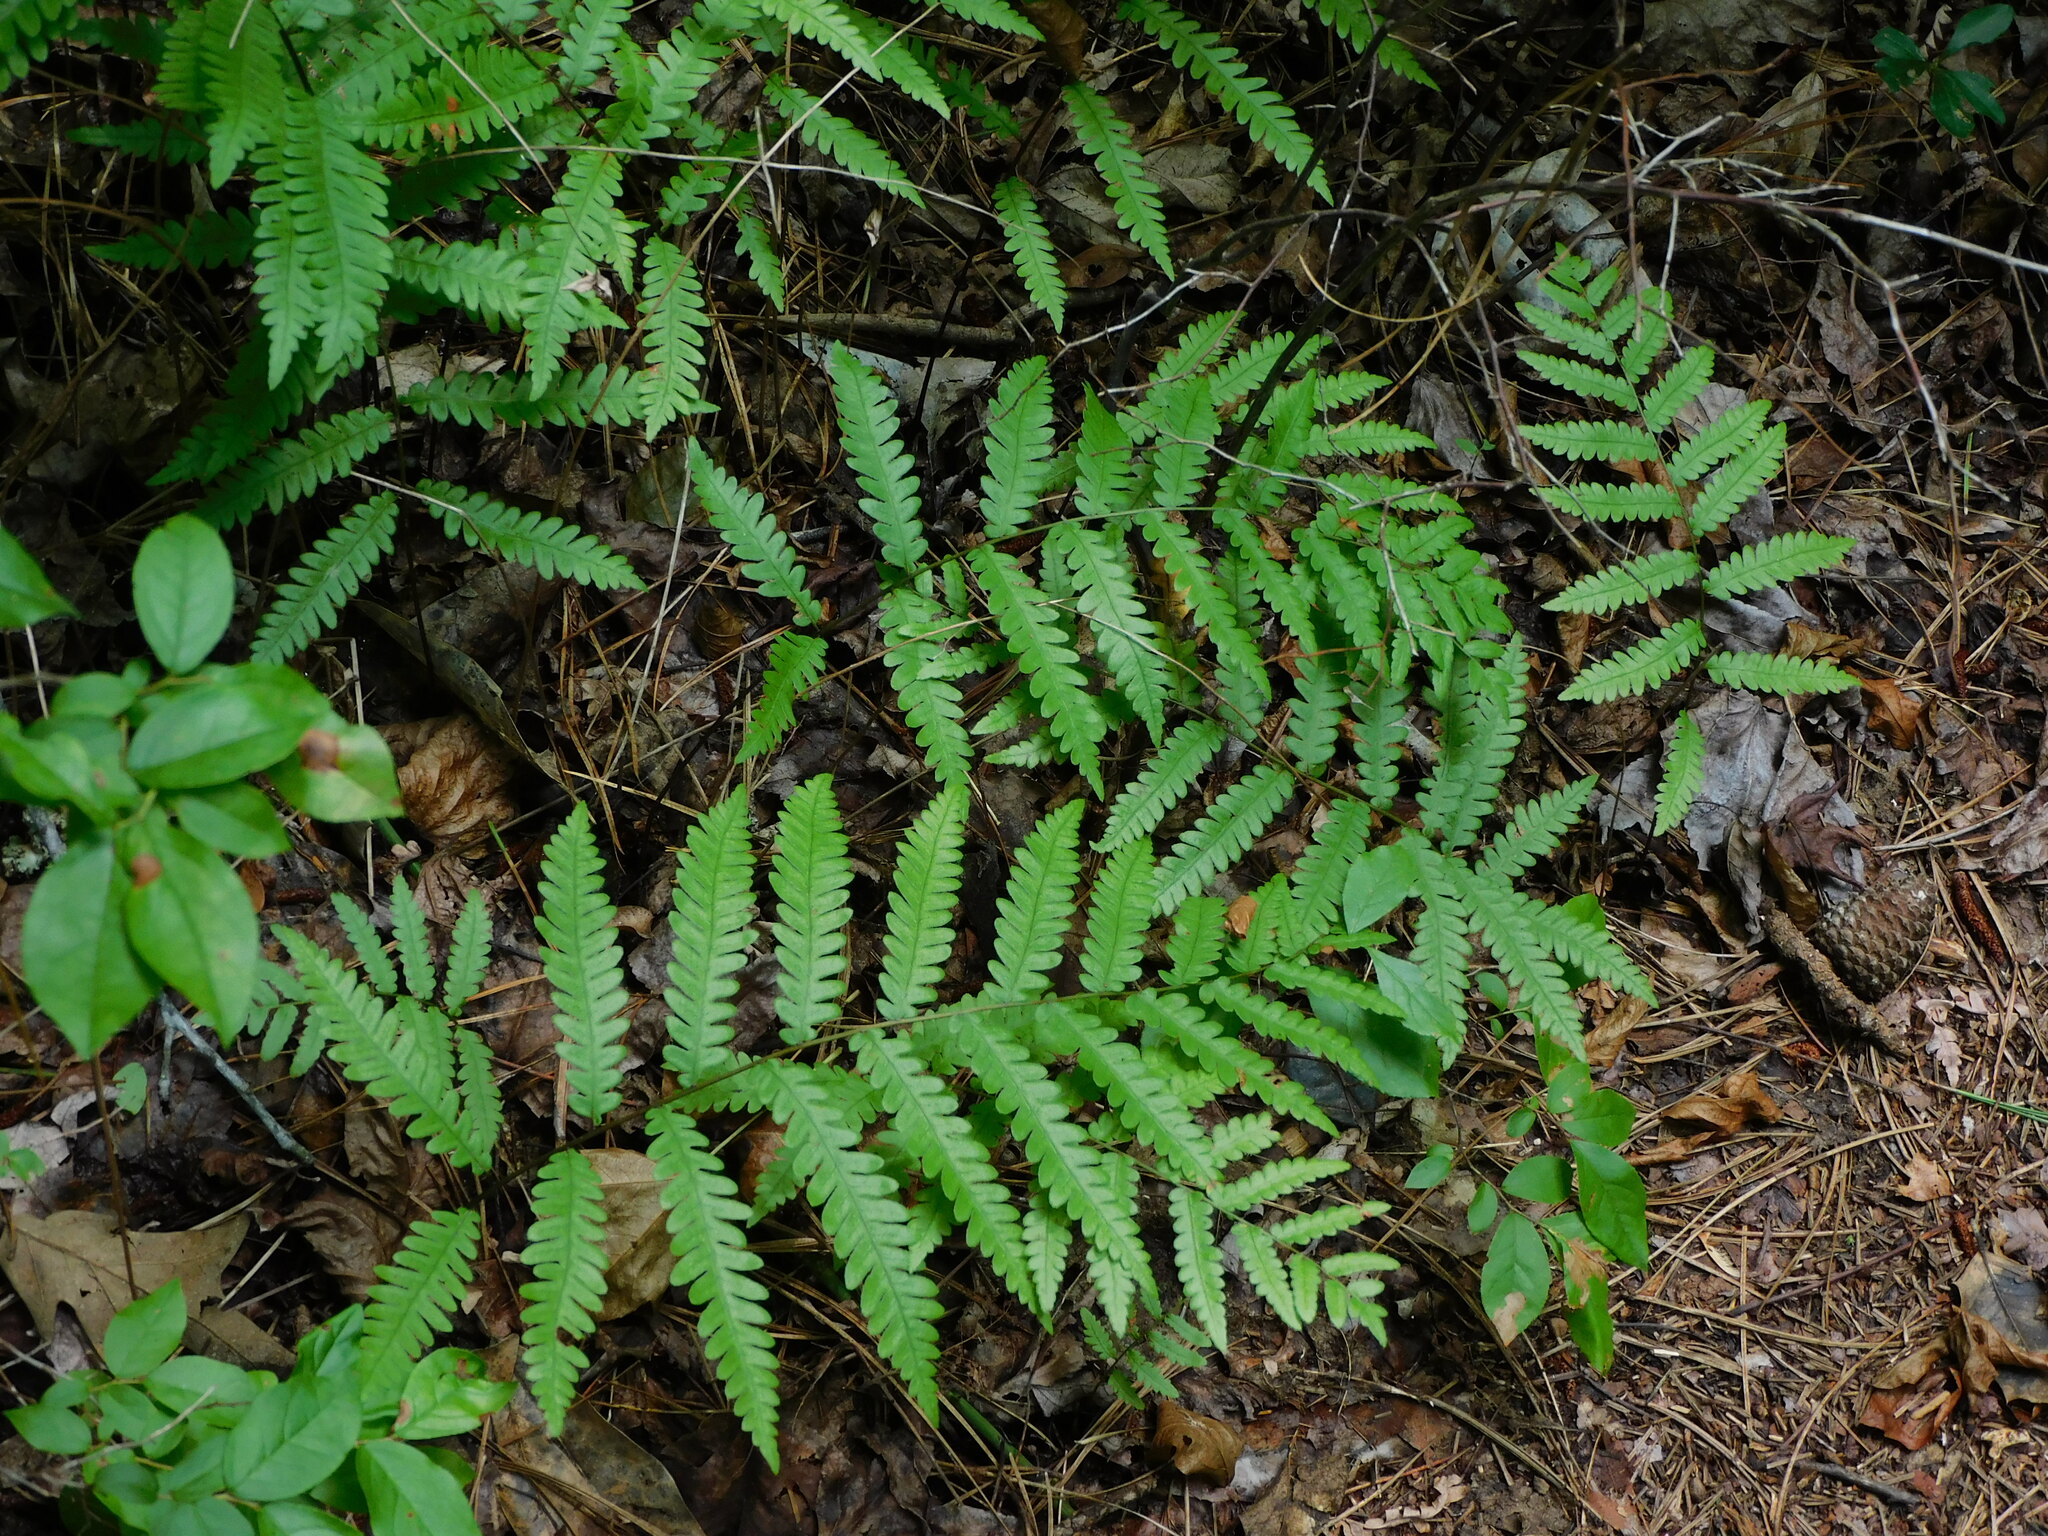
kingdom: Plantae
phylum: Tracheophyta
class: Polypodiopsida
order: Polypodiales
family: Blechnaceae
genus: Anchistea
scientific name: Anchistea virginica
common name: Virginia chain fern
